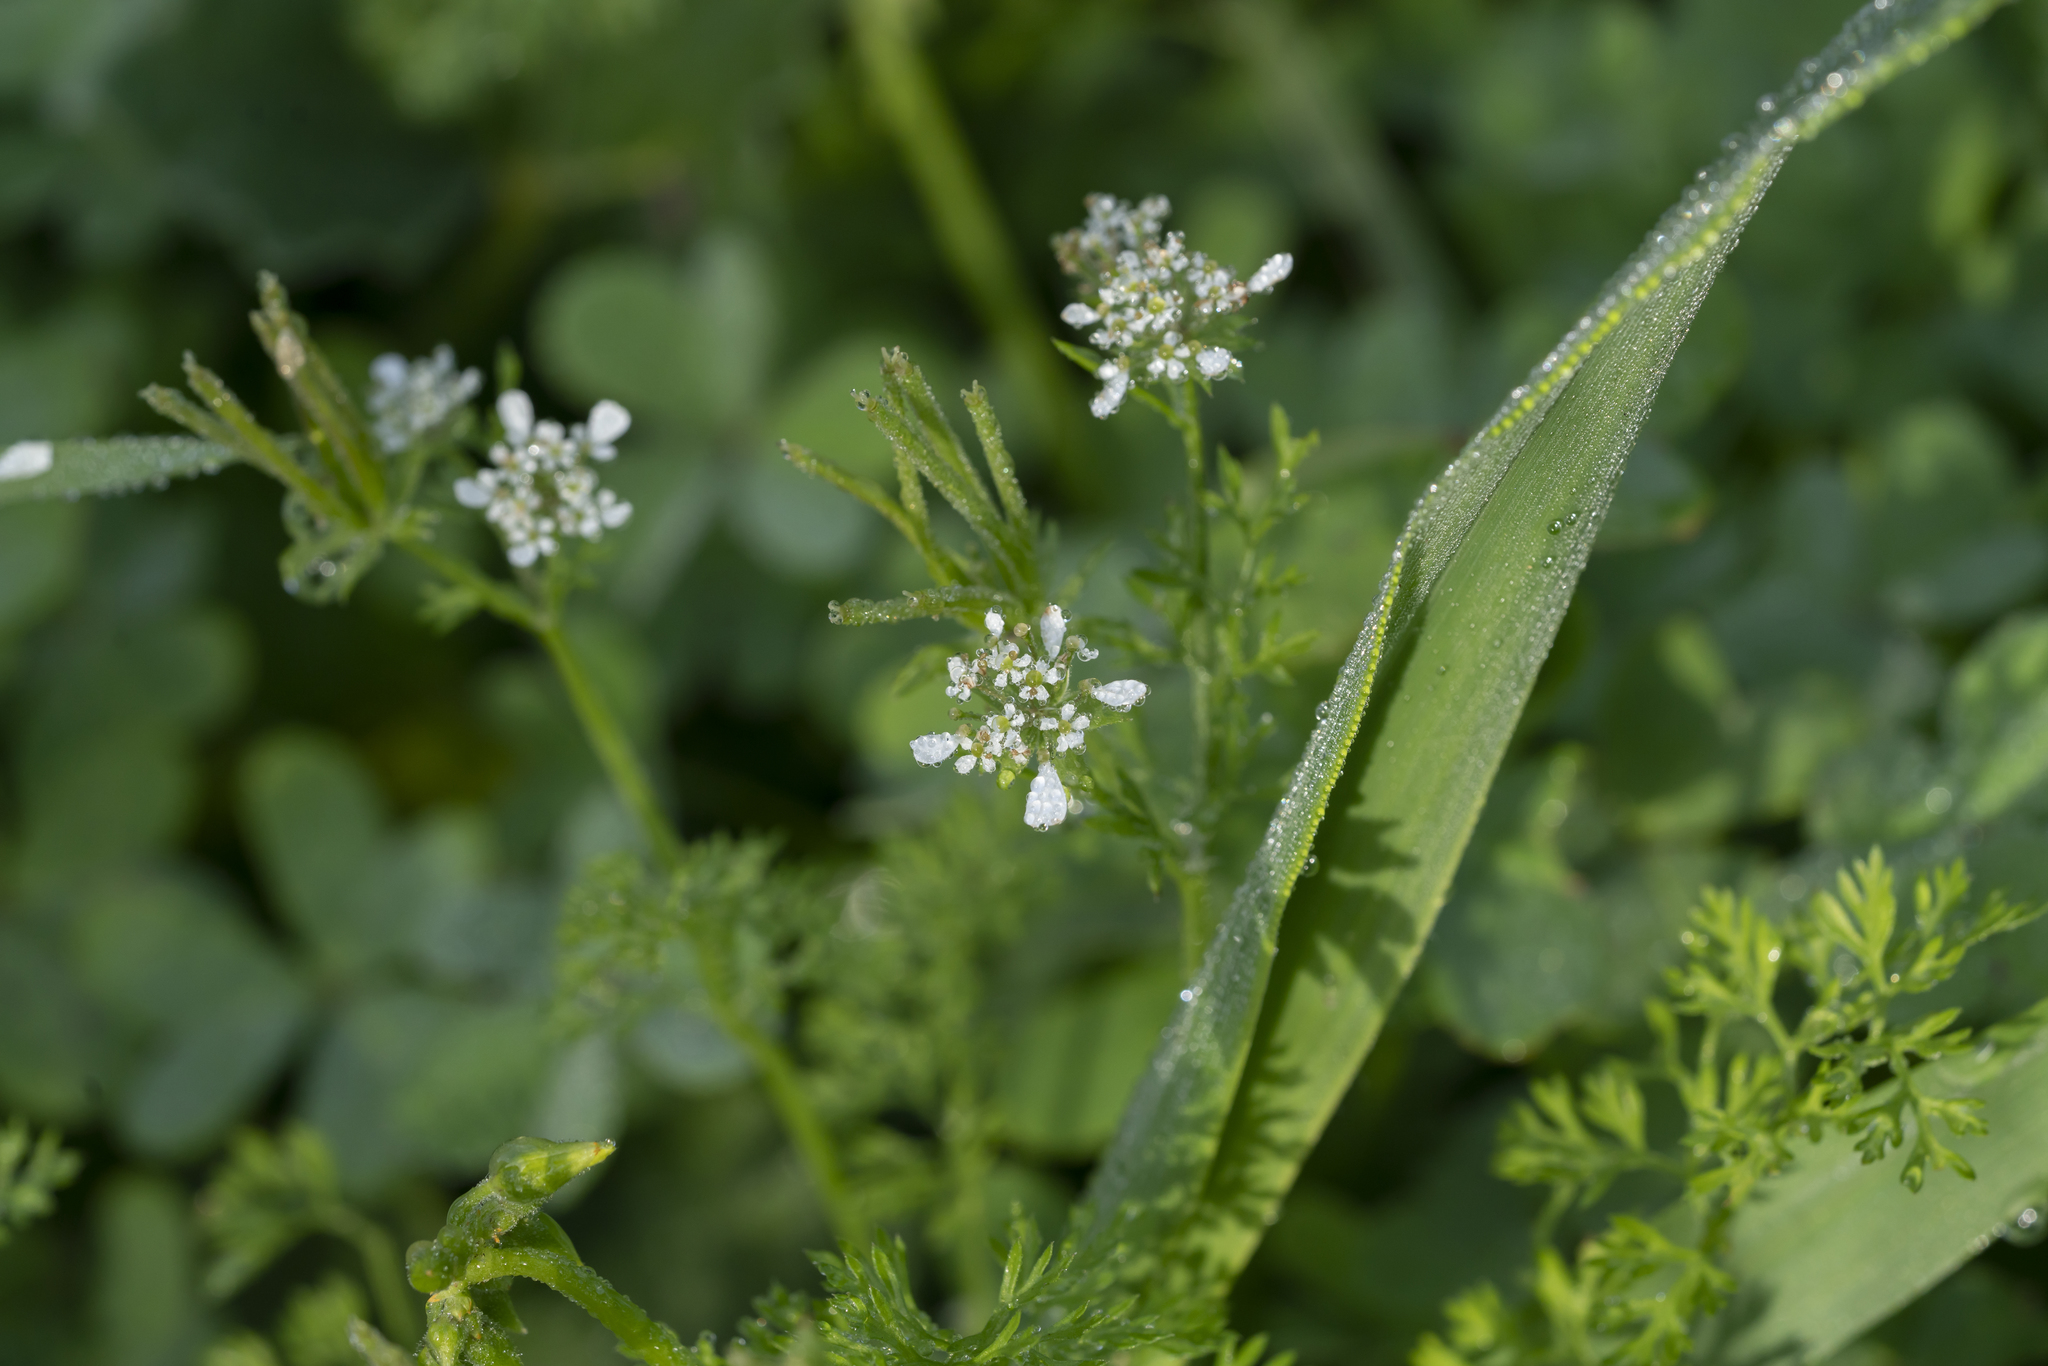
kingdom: Plantae
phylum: Tracheophyta
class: Magnoliopsida
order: Apiales
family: Apiaceae
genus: Scandix
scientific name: Scandix
